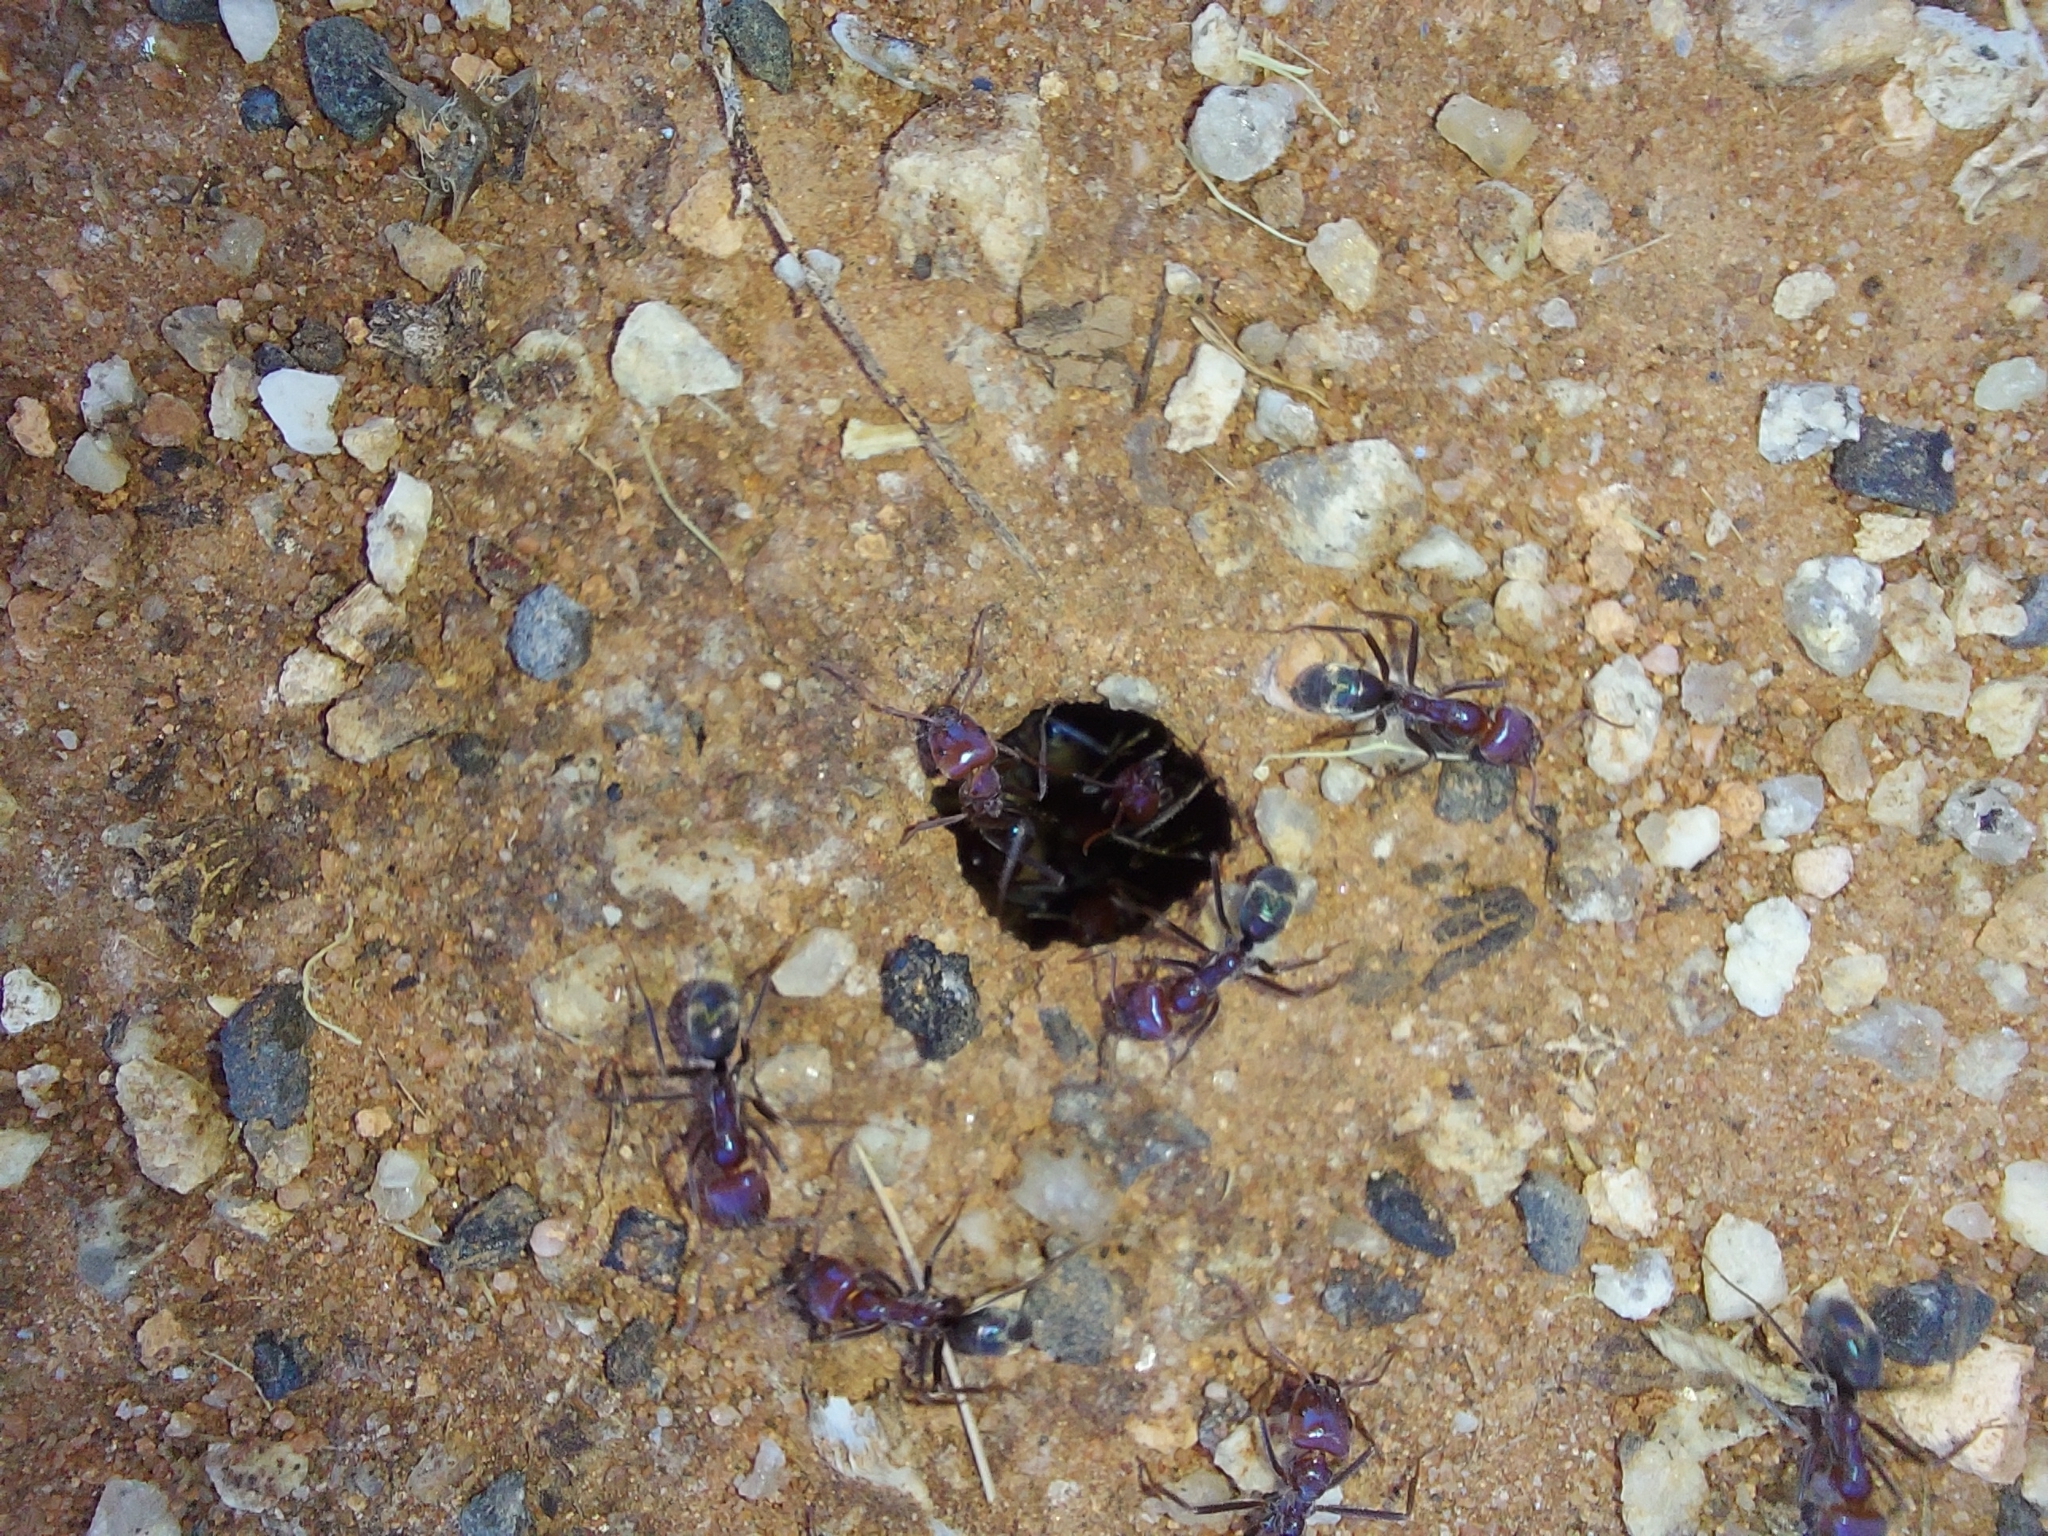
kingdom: Animalia
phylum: Arthropoda
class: Insecta
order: Hymenoptera
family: Formicidae
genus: Iridomyrmex
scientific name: Iridomyrmex purpureus
